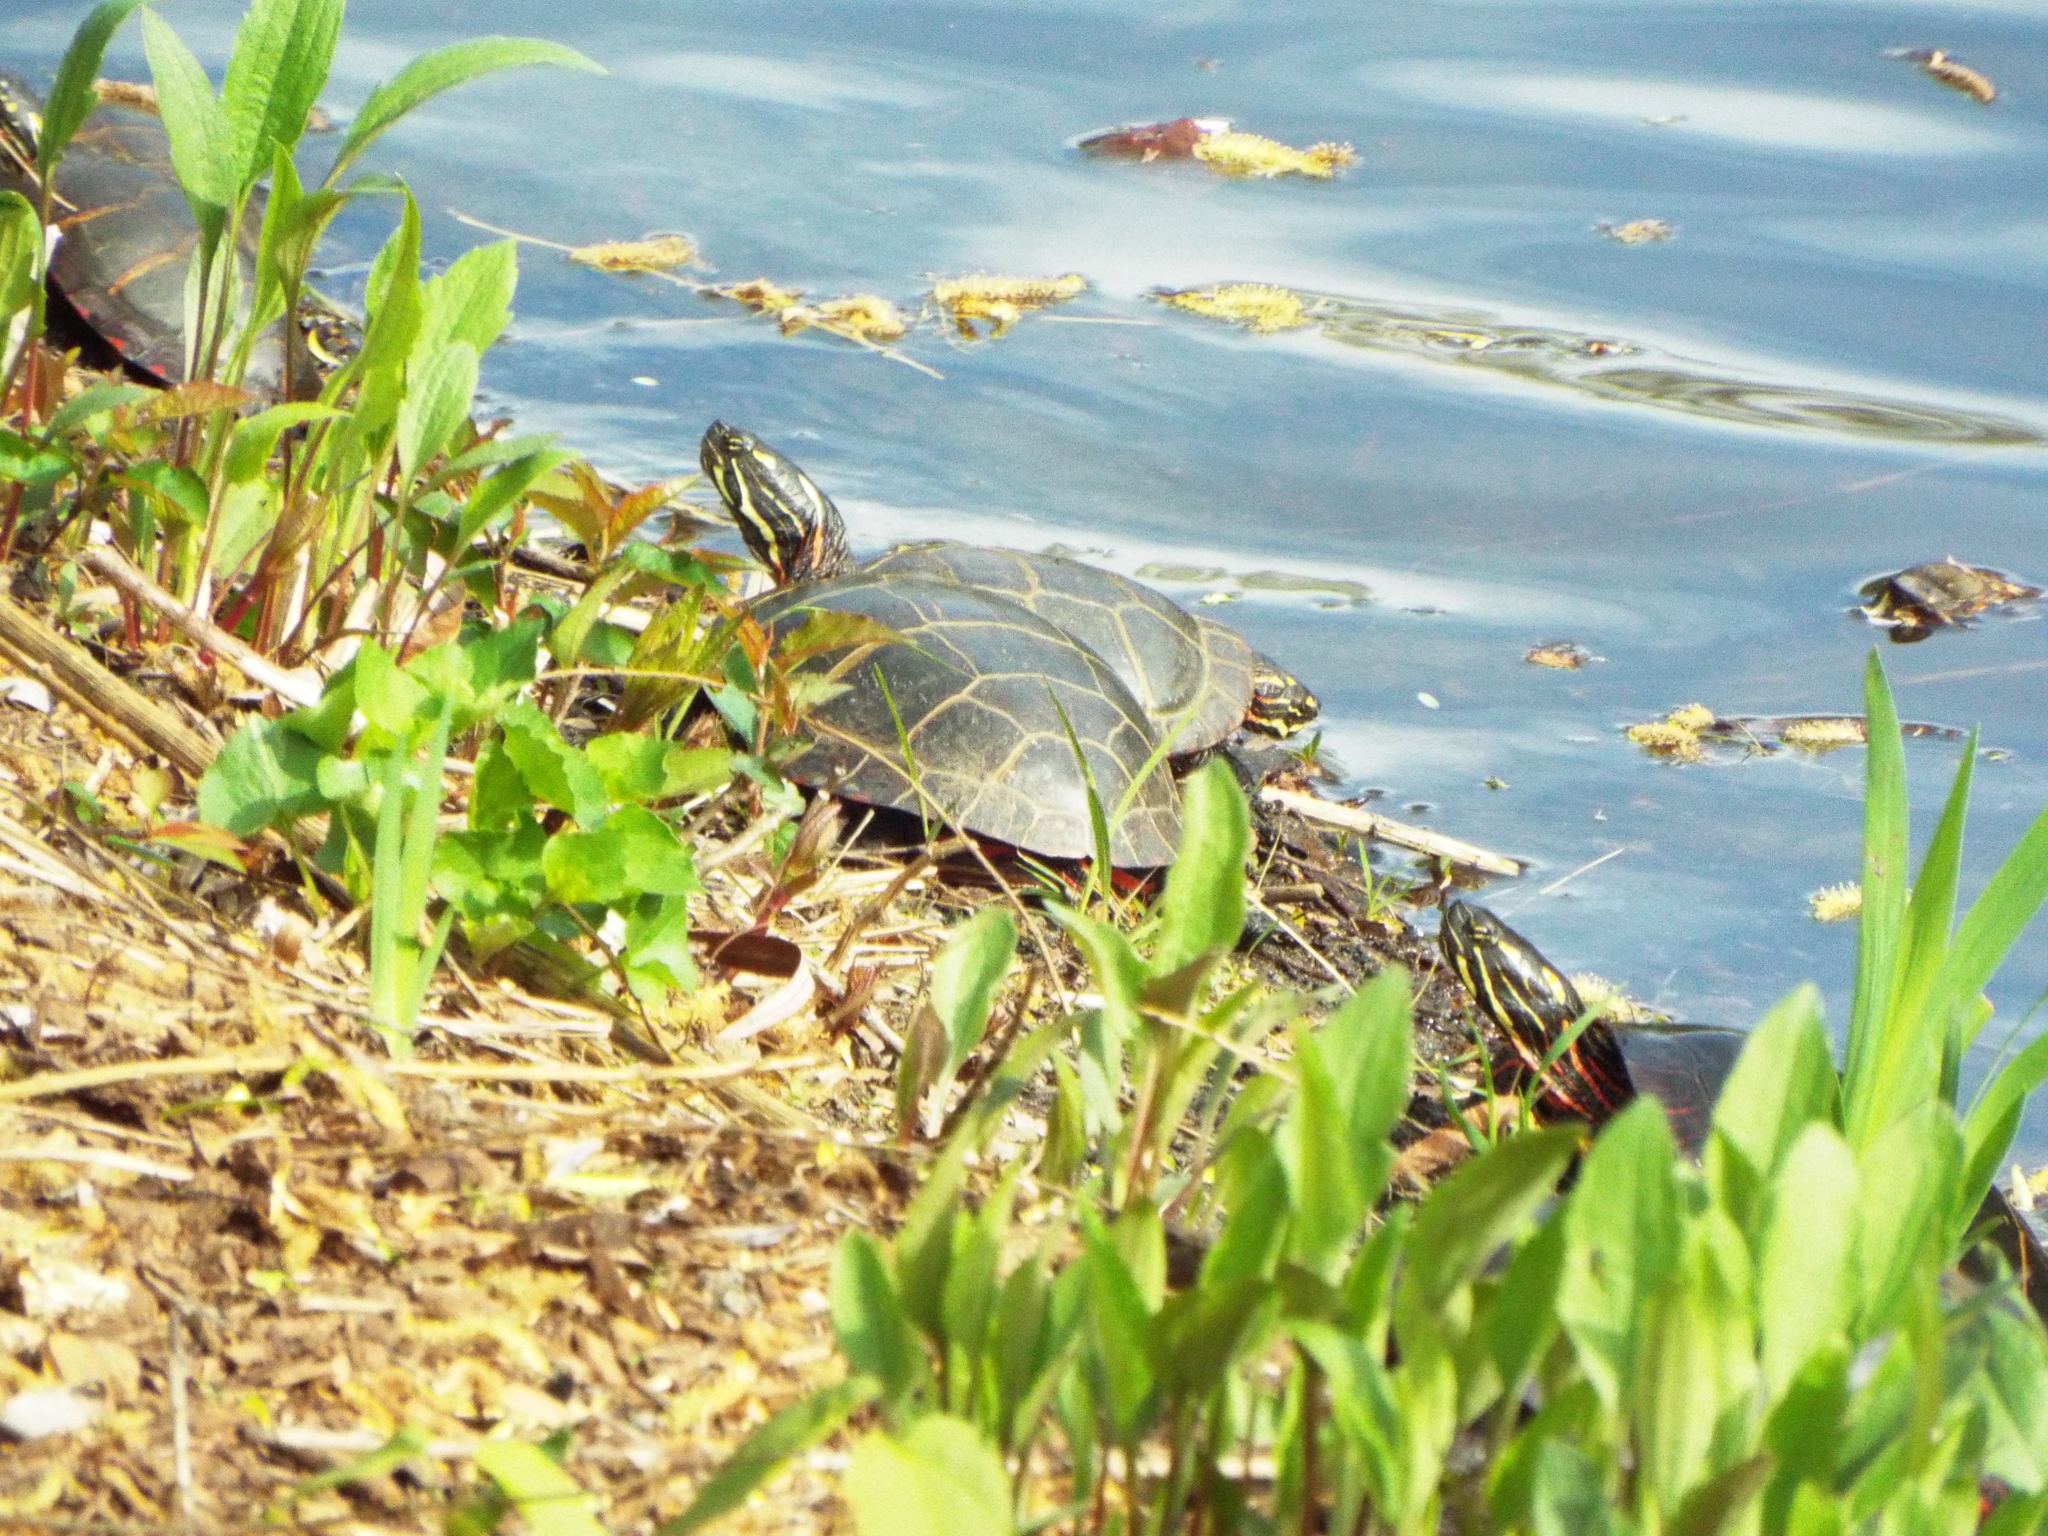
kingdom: Animalia
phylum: Chordata
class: Testudines
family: Emydidae
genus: Chrysemys
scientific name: Chrysemys picta
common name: Painted turtle
